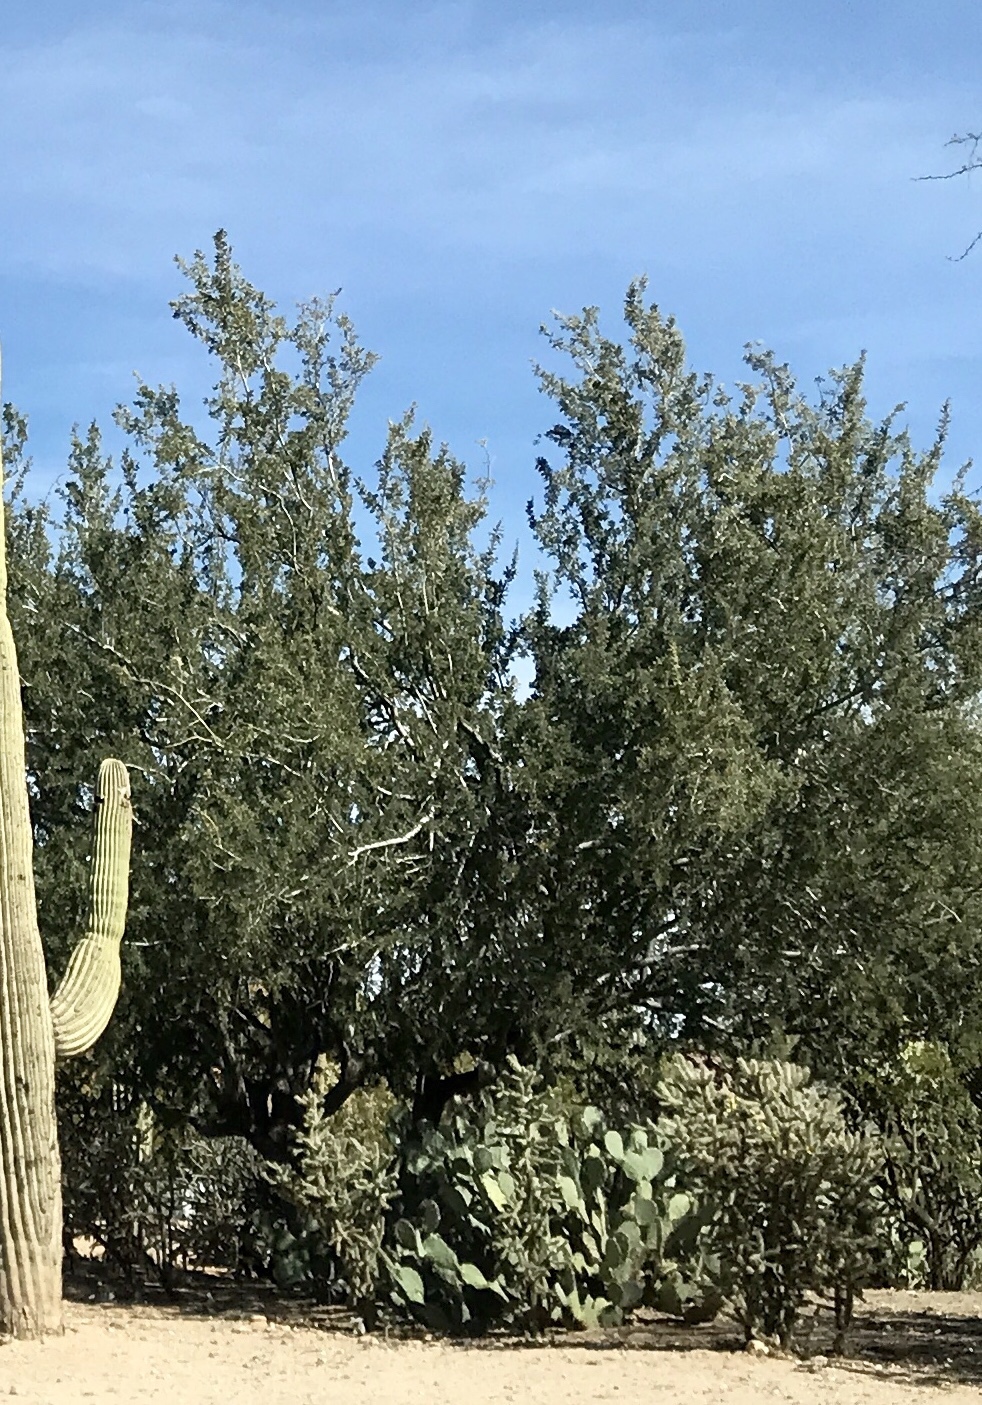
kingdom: Plantae
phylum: Tracheophyta
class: Magnoliopsida
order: Fabales
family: Fabaceae
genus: Olneya
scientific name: Olneya tesota
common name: Desert ironwood
